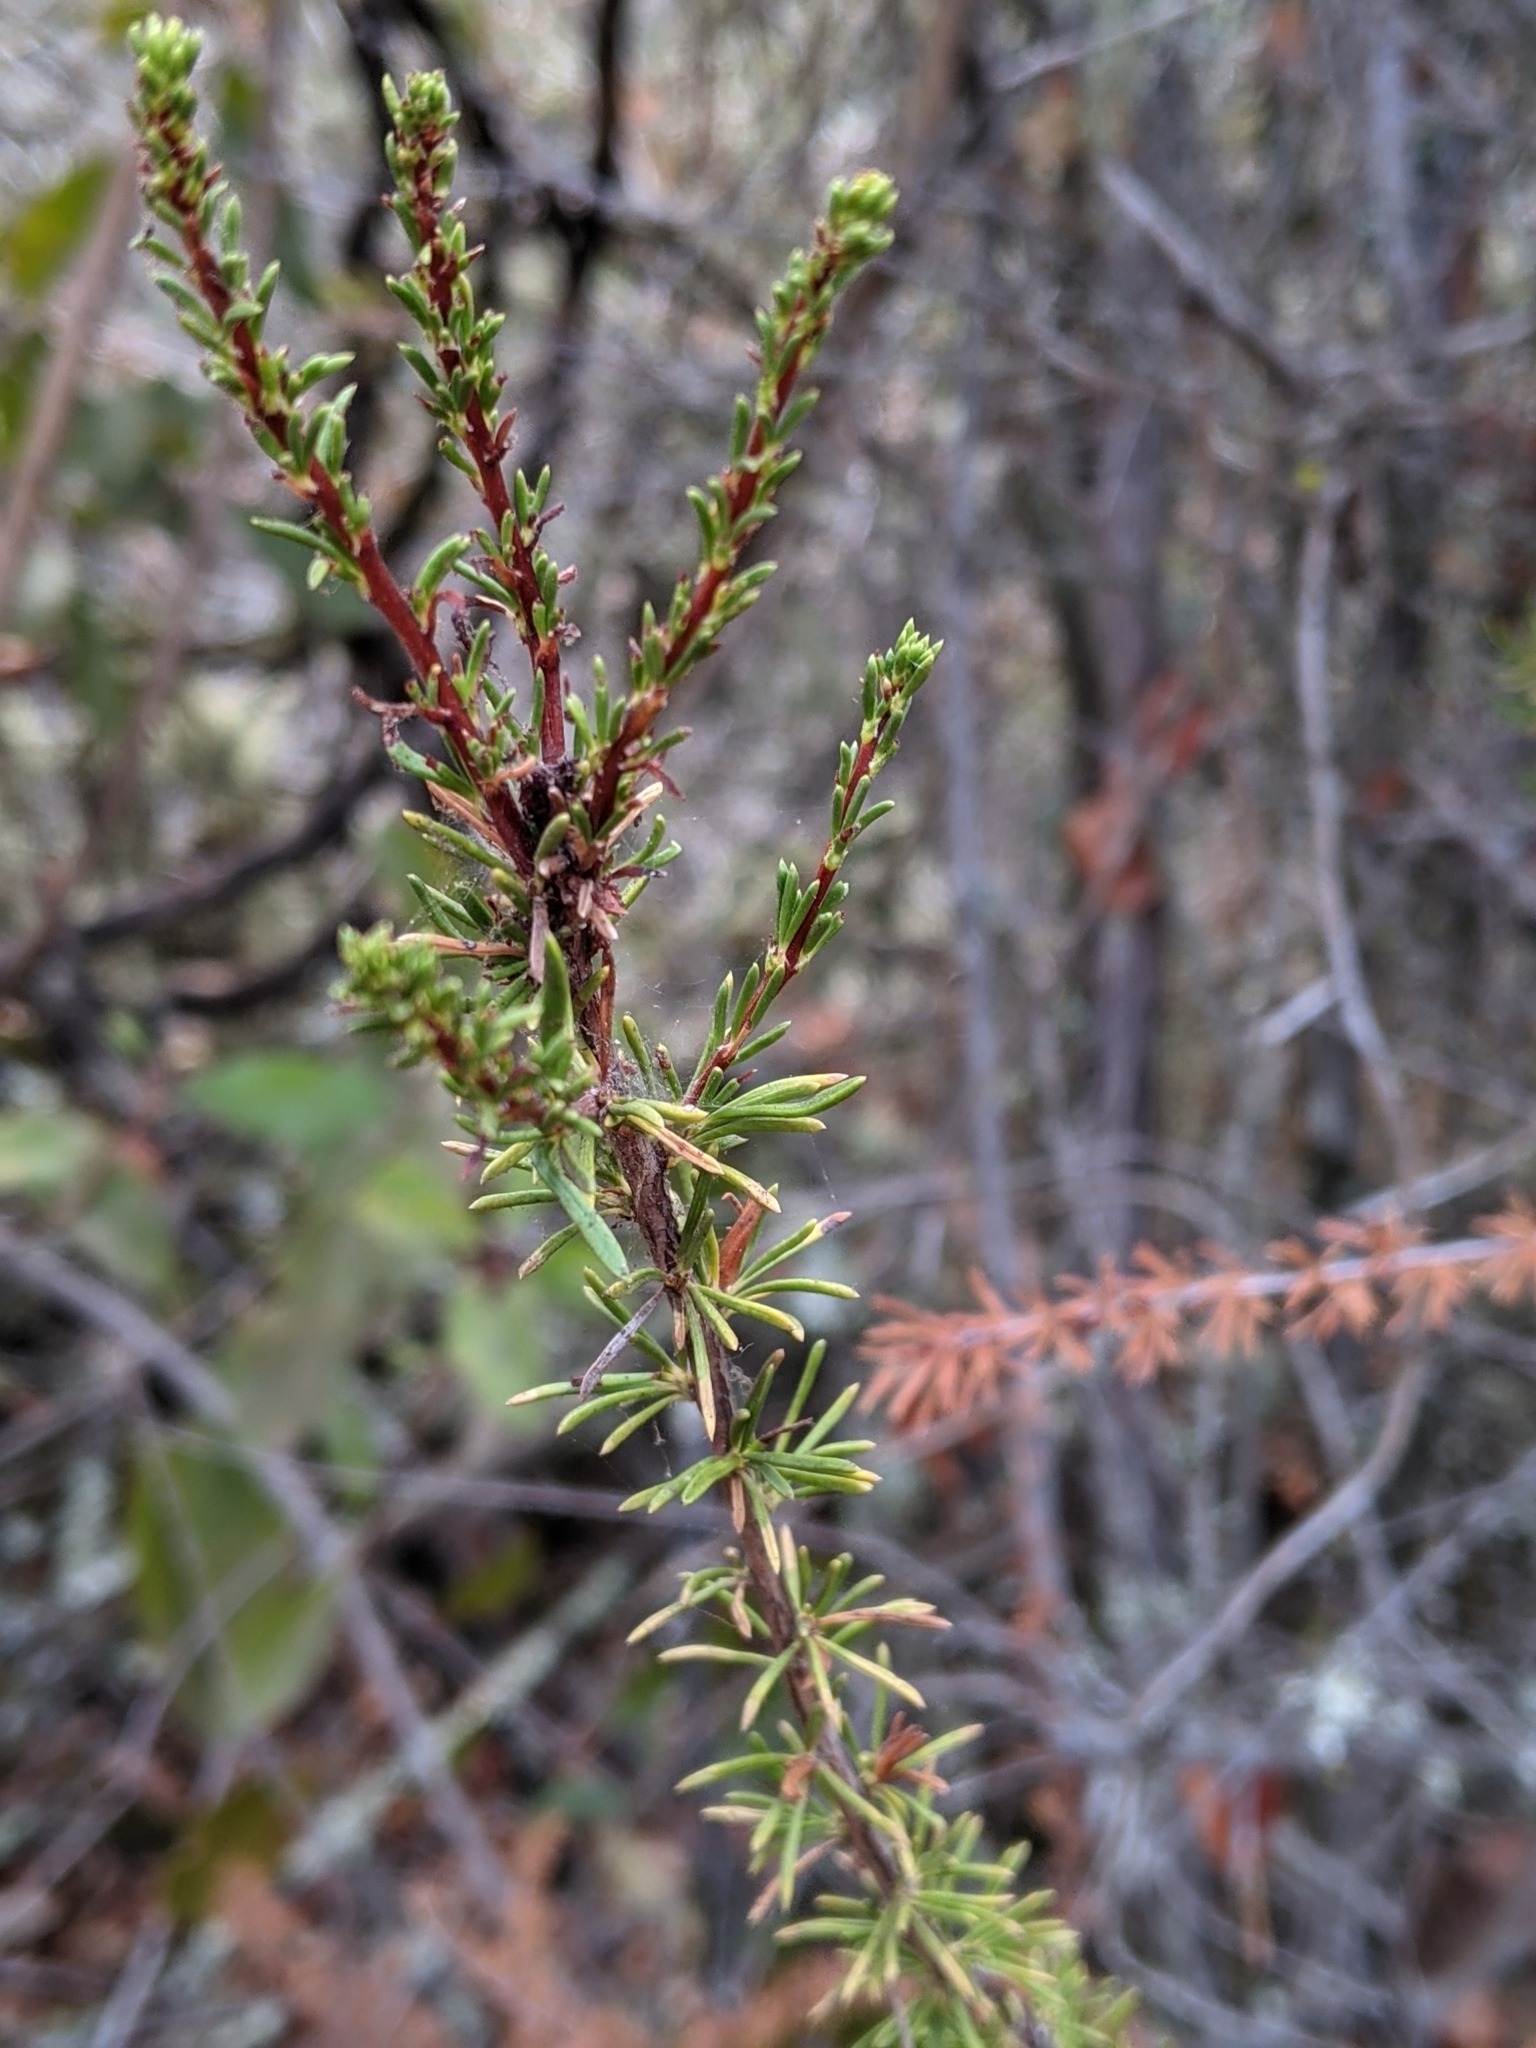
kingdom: Plantae
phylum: Tracheophyta
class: Magnoliopsida
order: Rosales
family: Rosaceae
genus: Adenostoma
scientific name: Adenostoma fasciculatum
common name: Chamise
